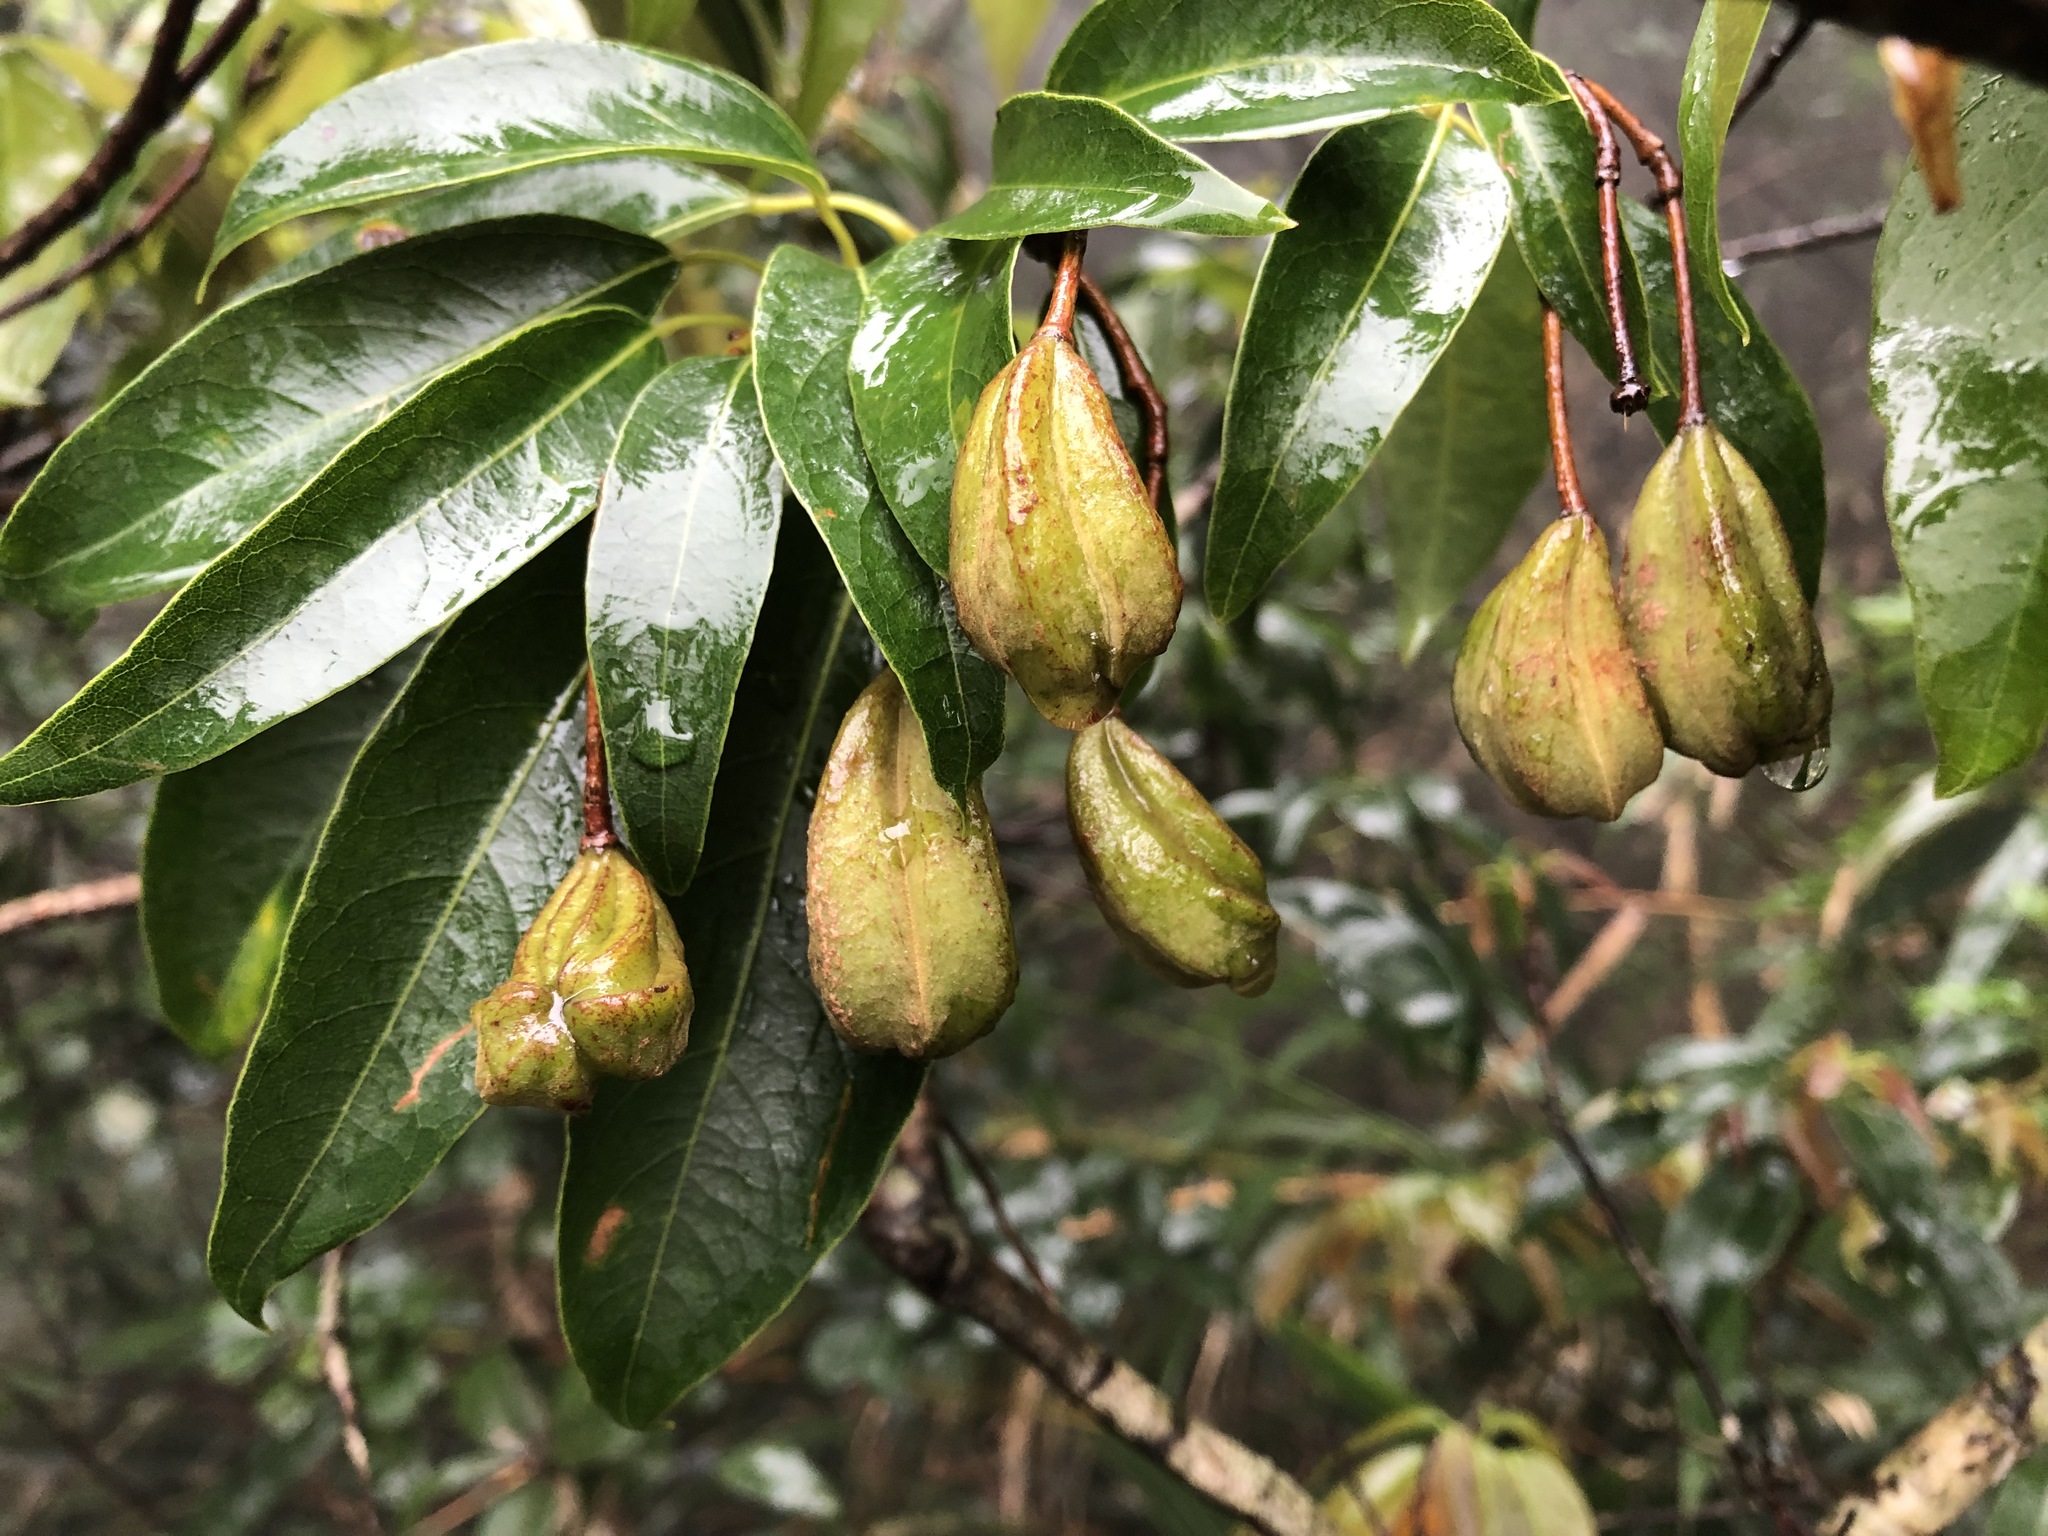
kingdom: Plantae
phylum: Tracheophyta
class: Magnoliopsida
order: Malvales
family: Malvaceae
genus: Reevesia
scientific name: Reevesia thyrsoidea
